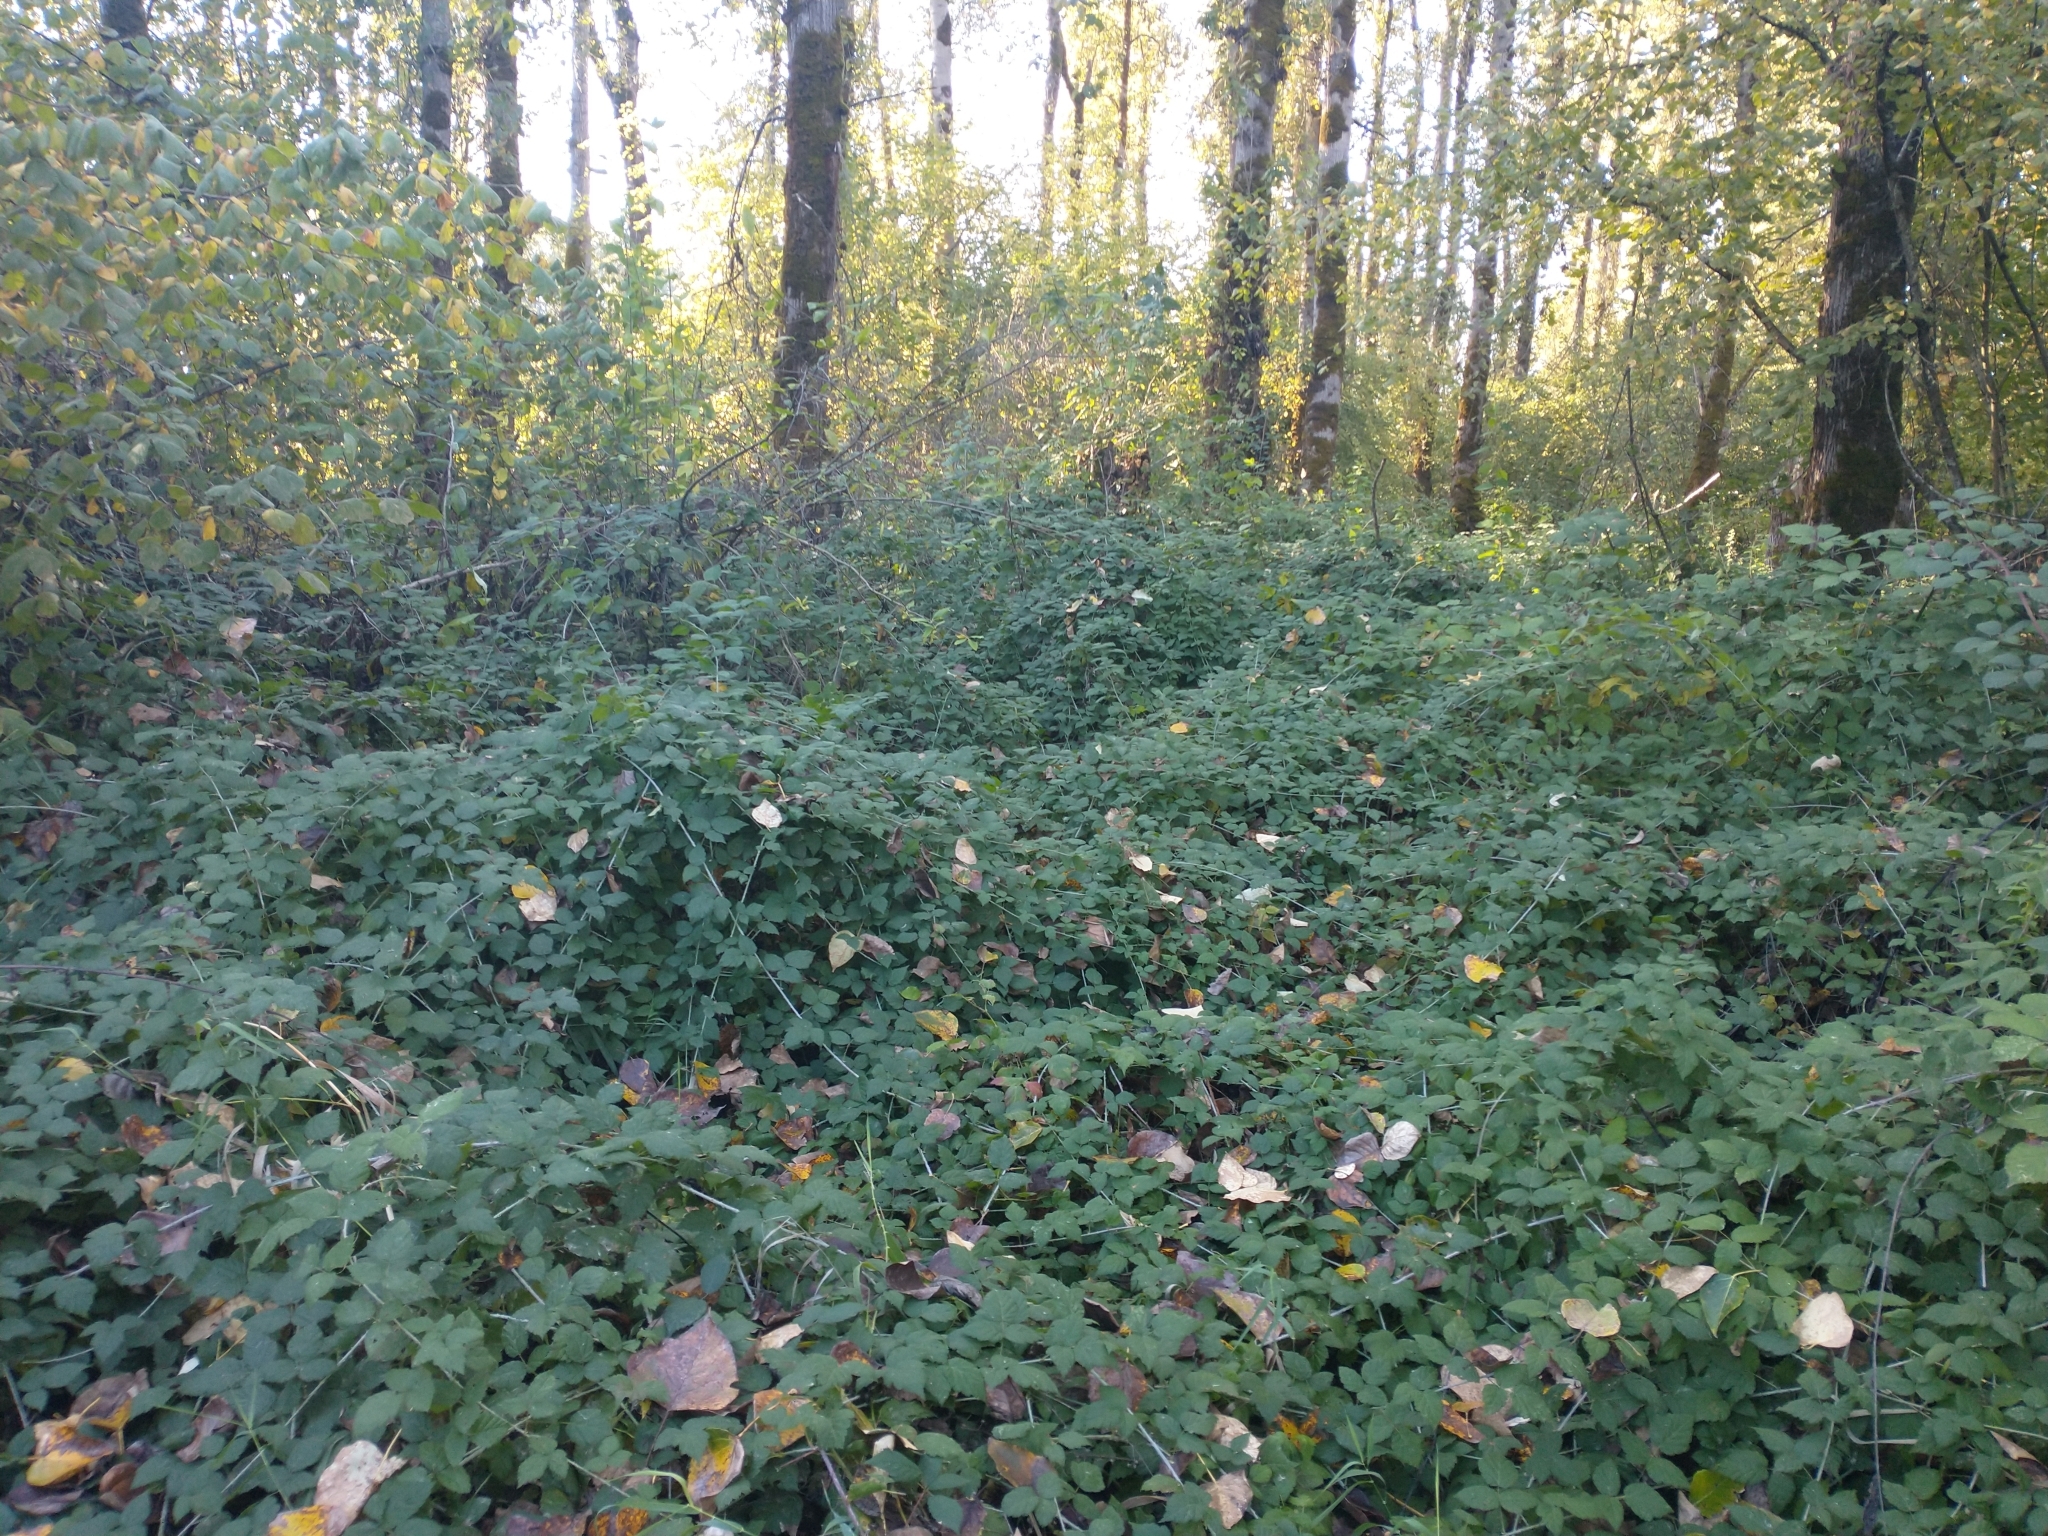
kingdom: Plantae
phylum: Tracheophyta
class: Magnoliopsida
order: Rosales
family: Rosaceae
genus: Rubus
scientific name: Rubus ursinus
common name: Pacific blackberry
